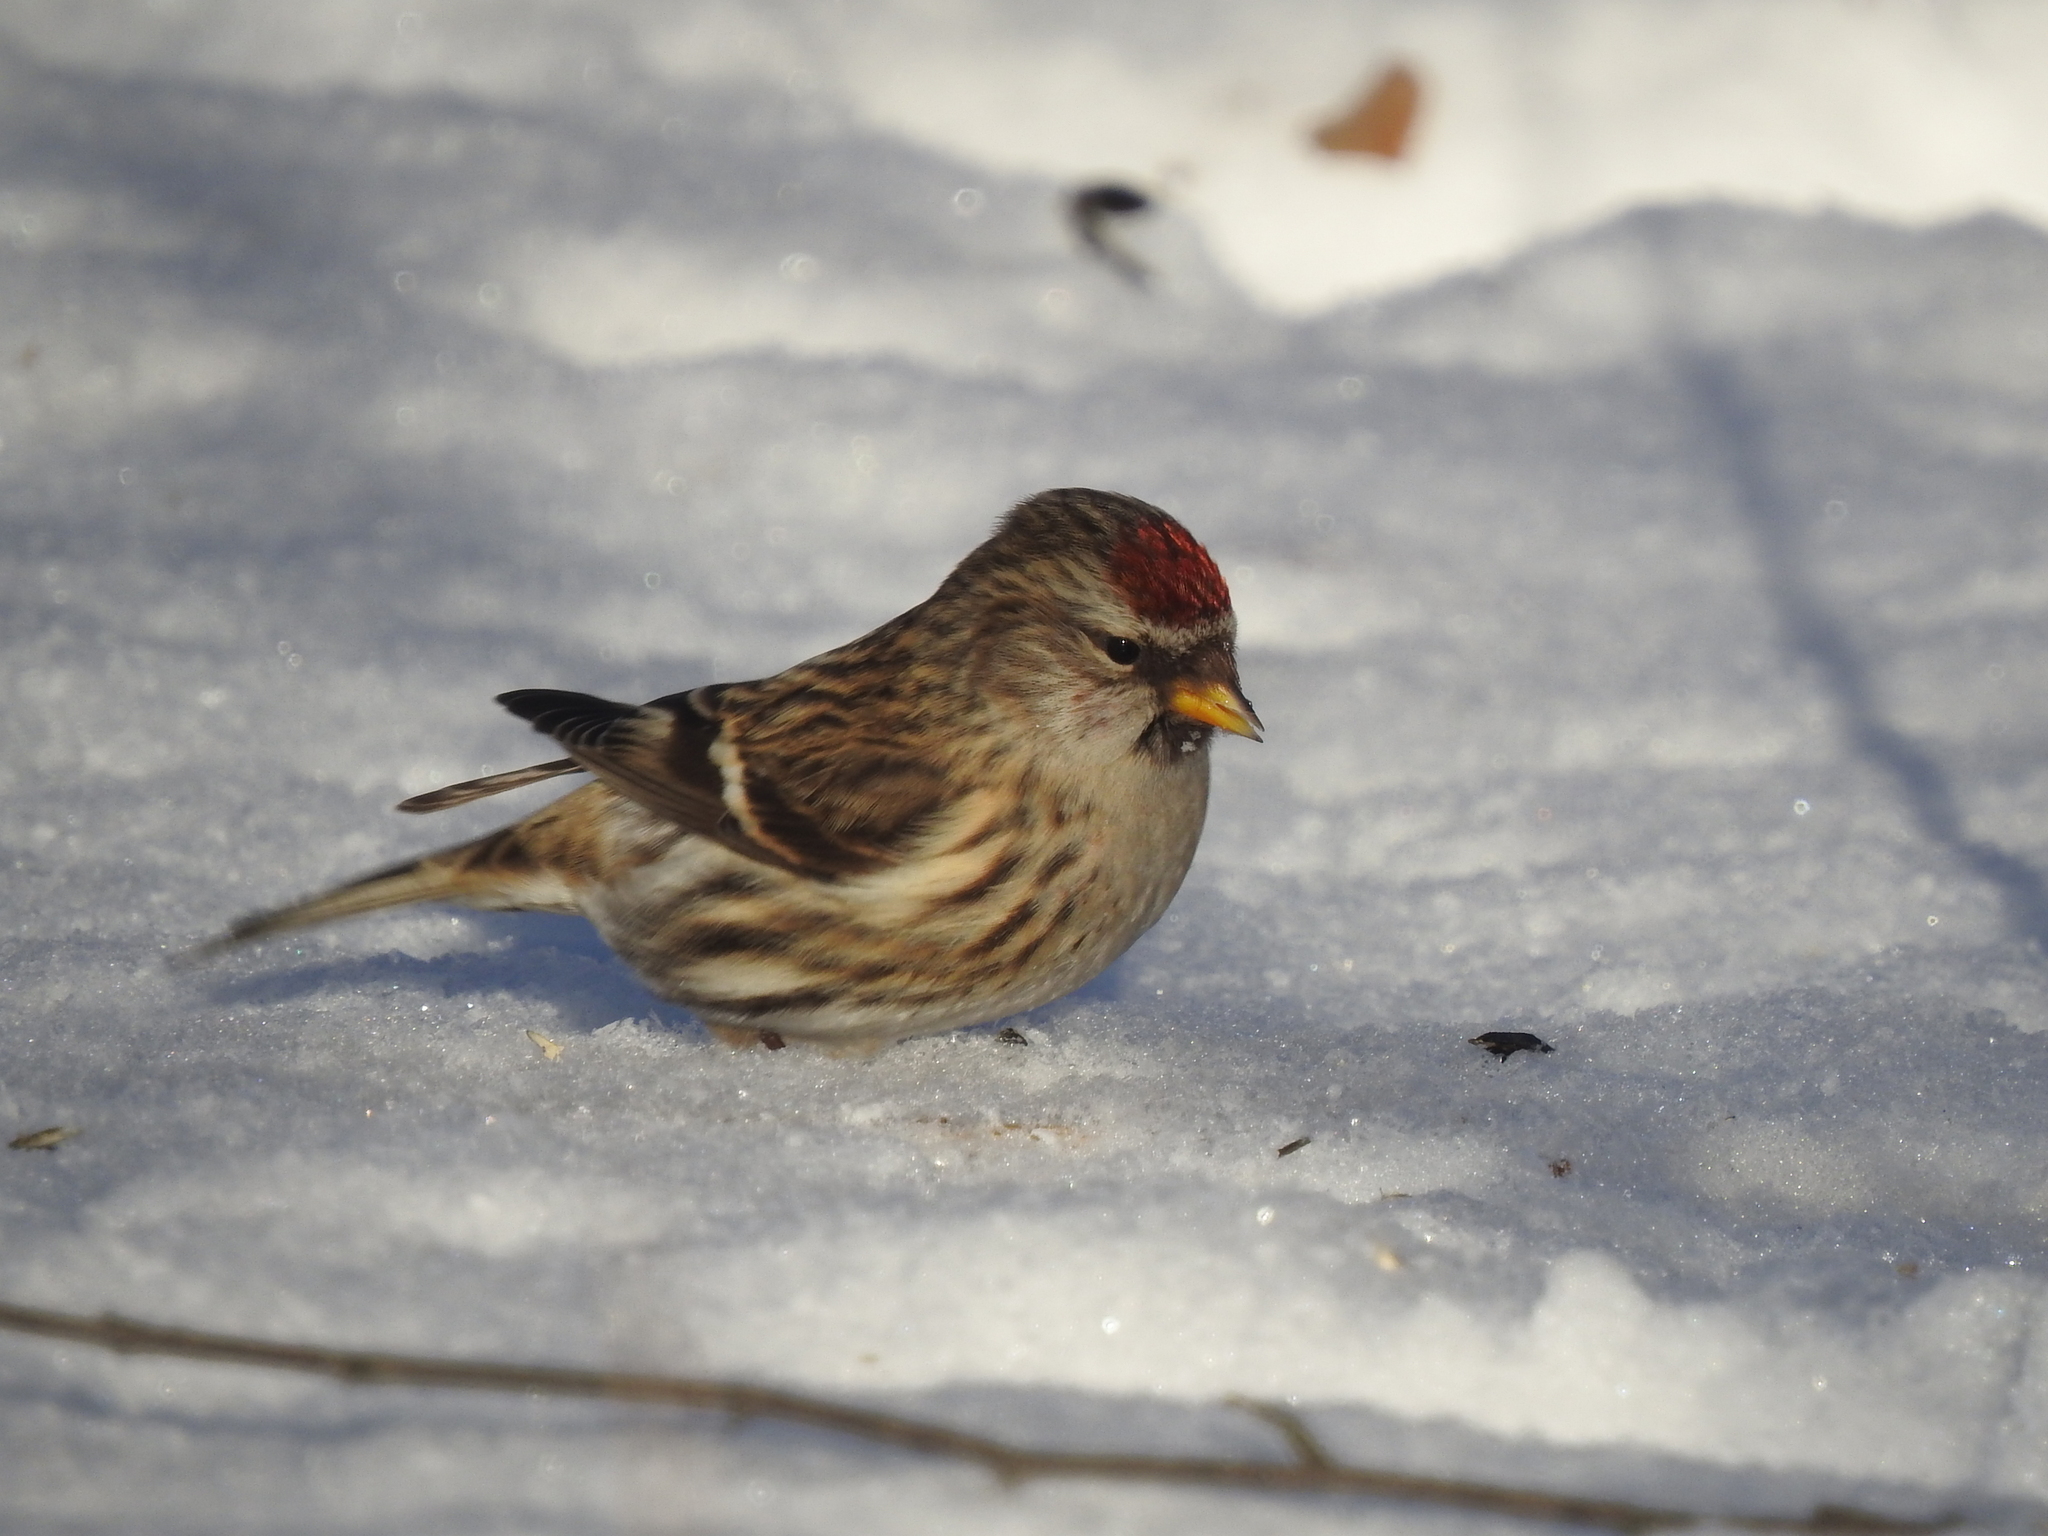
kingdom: Animalia
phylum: Chordata
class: Aves
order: Passeriformes
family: Fringillidae
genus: Acanthis
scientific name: Acanthis flammea
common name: Common redpoll
